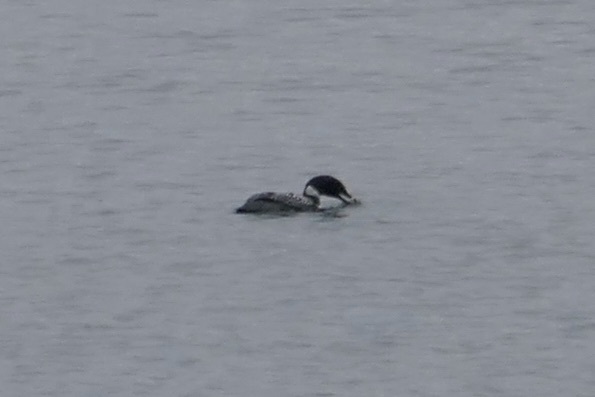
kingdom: Animalia
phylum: Chordata
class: Aves
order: Gaviiformes
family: Gaviidae
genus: Gavia
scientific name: Gavia immer
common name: Common loon
